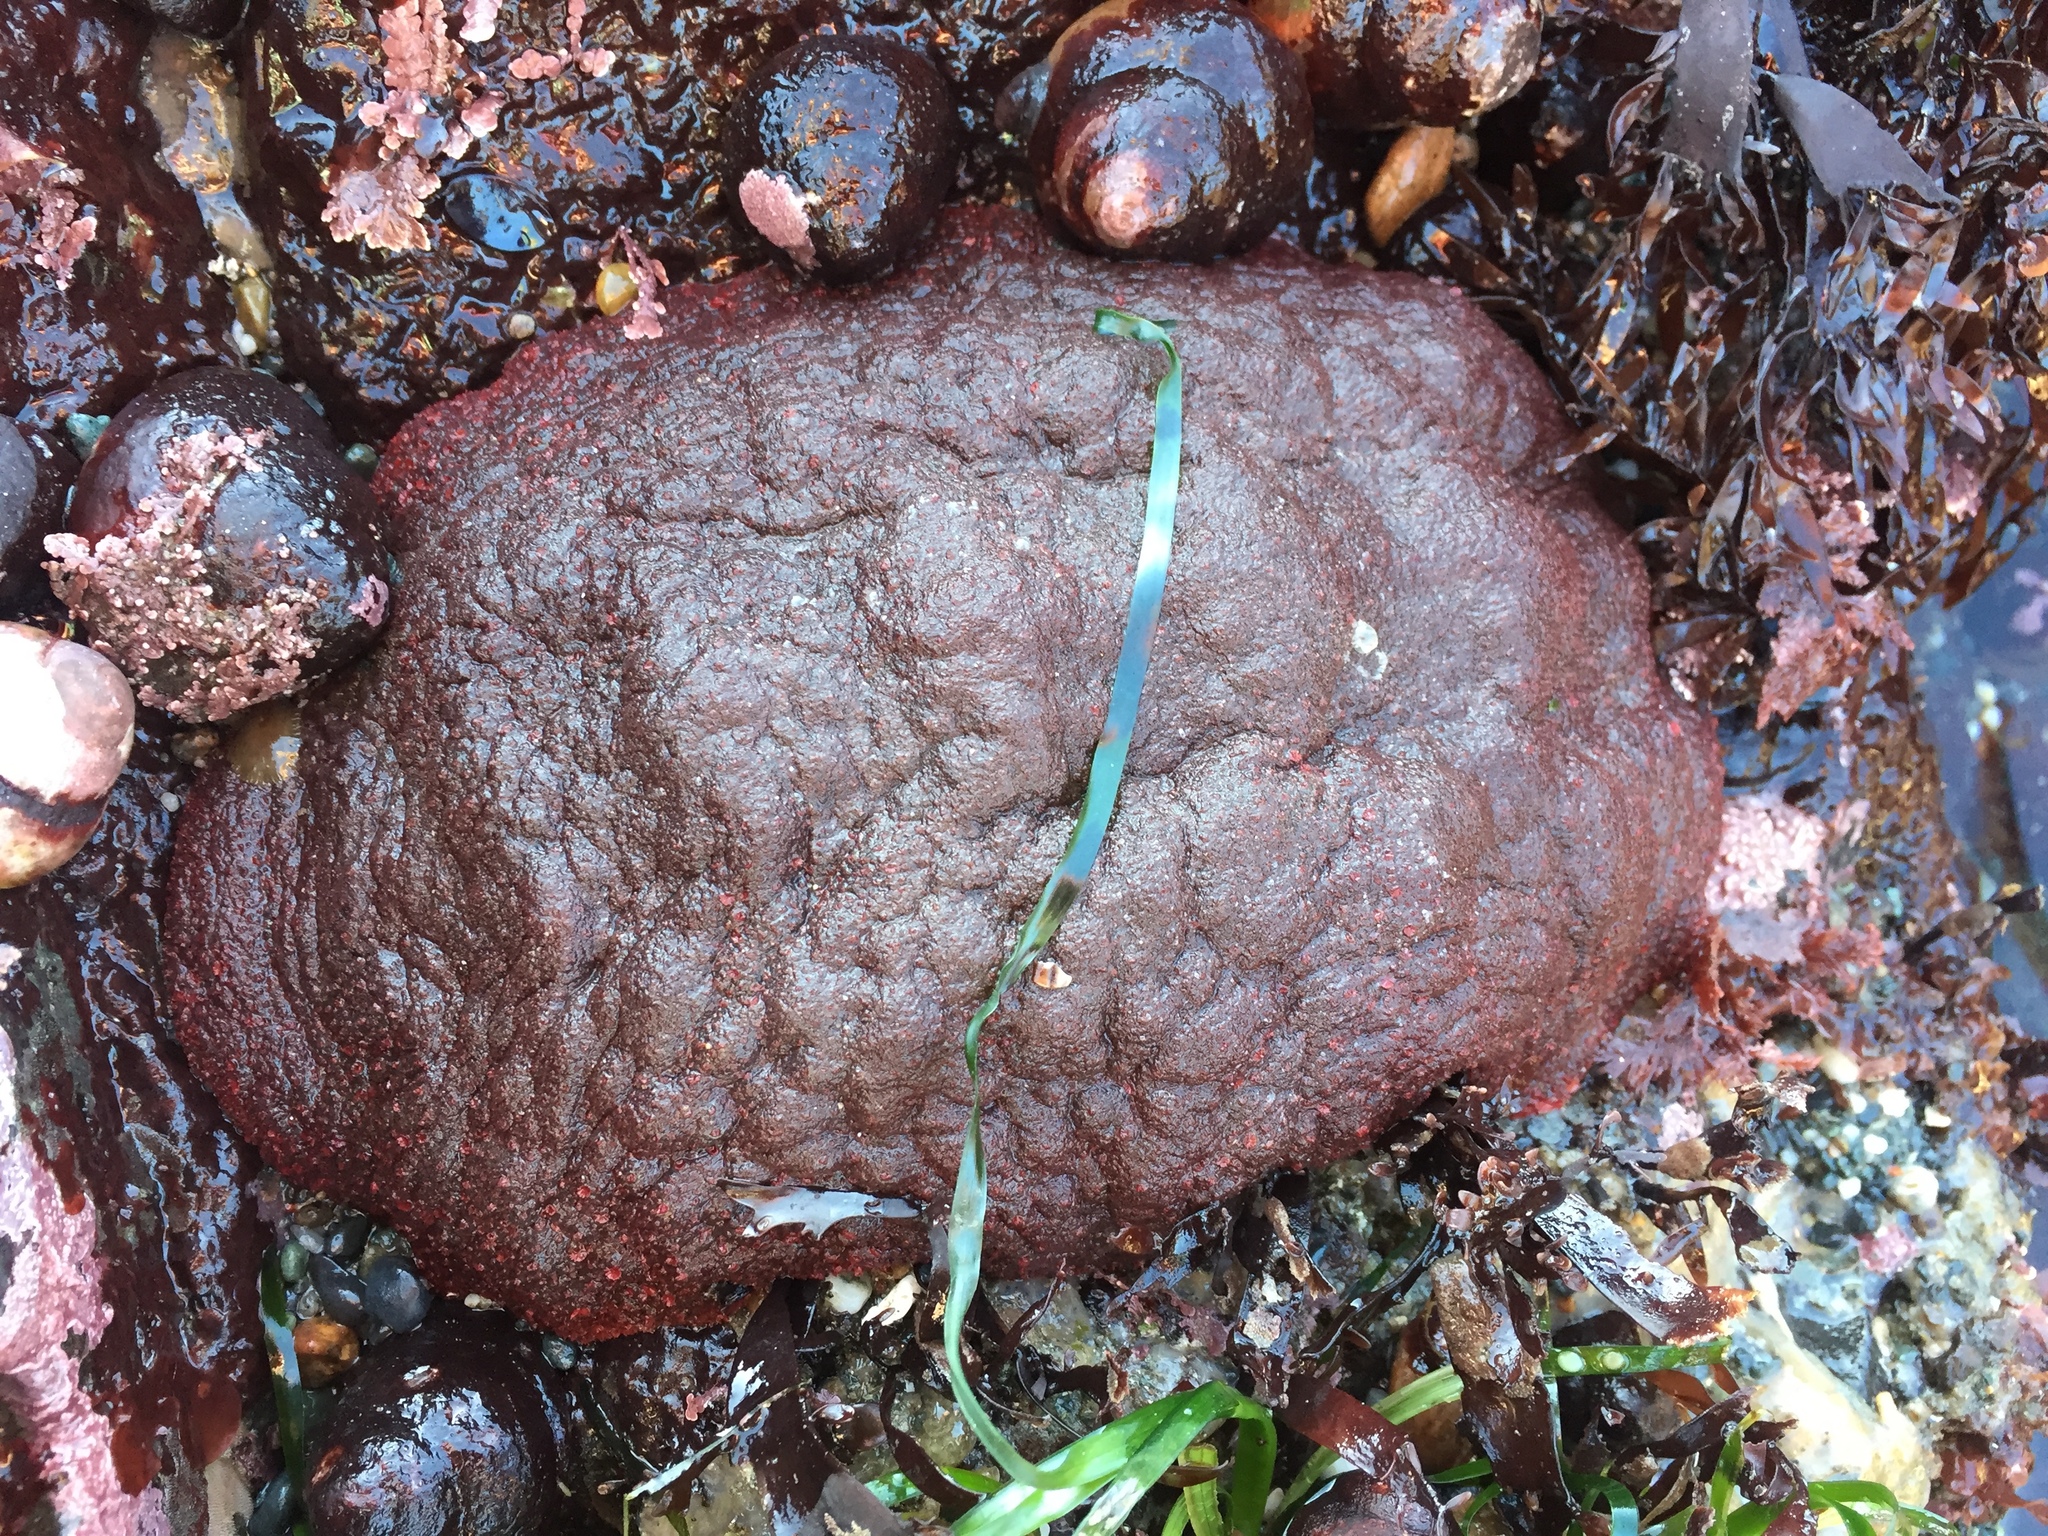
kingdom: Animalia
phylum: Mollusca
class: Polyplacophora
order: Chitonida
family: Acanthochitonidae
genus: Cryptochiton
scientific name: Cryptochiton stelleri
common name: Giant pacific chiton
